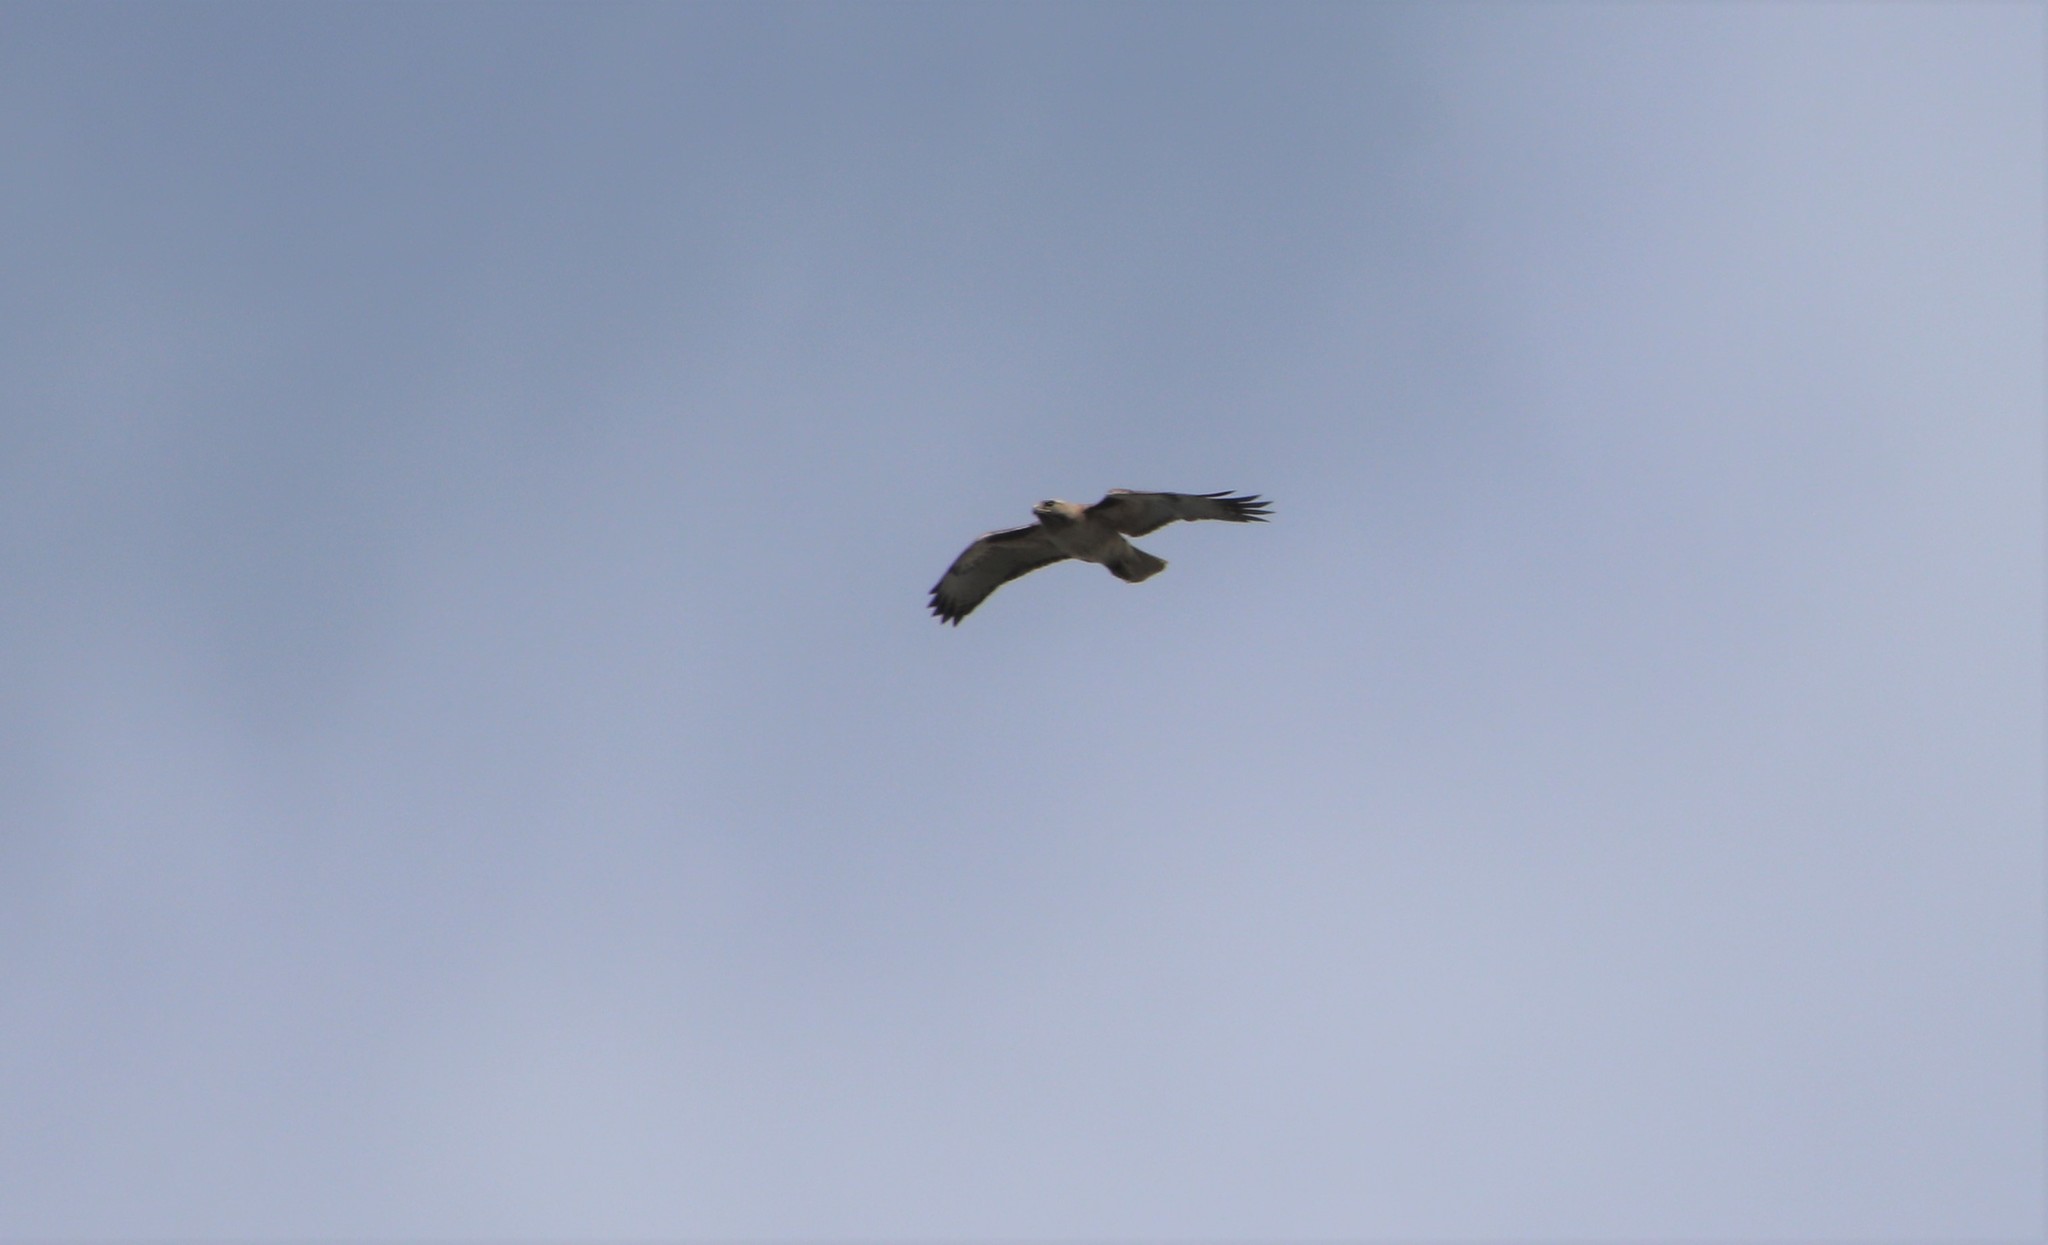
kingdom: Animalia
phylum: Chordata
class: Aves
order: Accipitriformes
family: Accipitridae
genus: Buteo
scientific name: Buteo jamaicensis
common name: Red-tailed hawk
